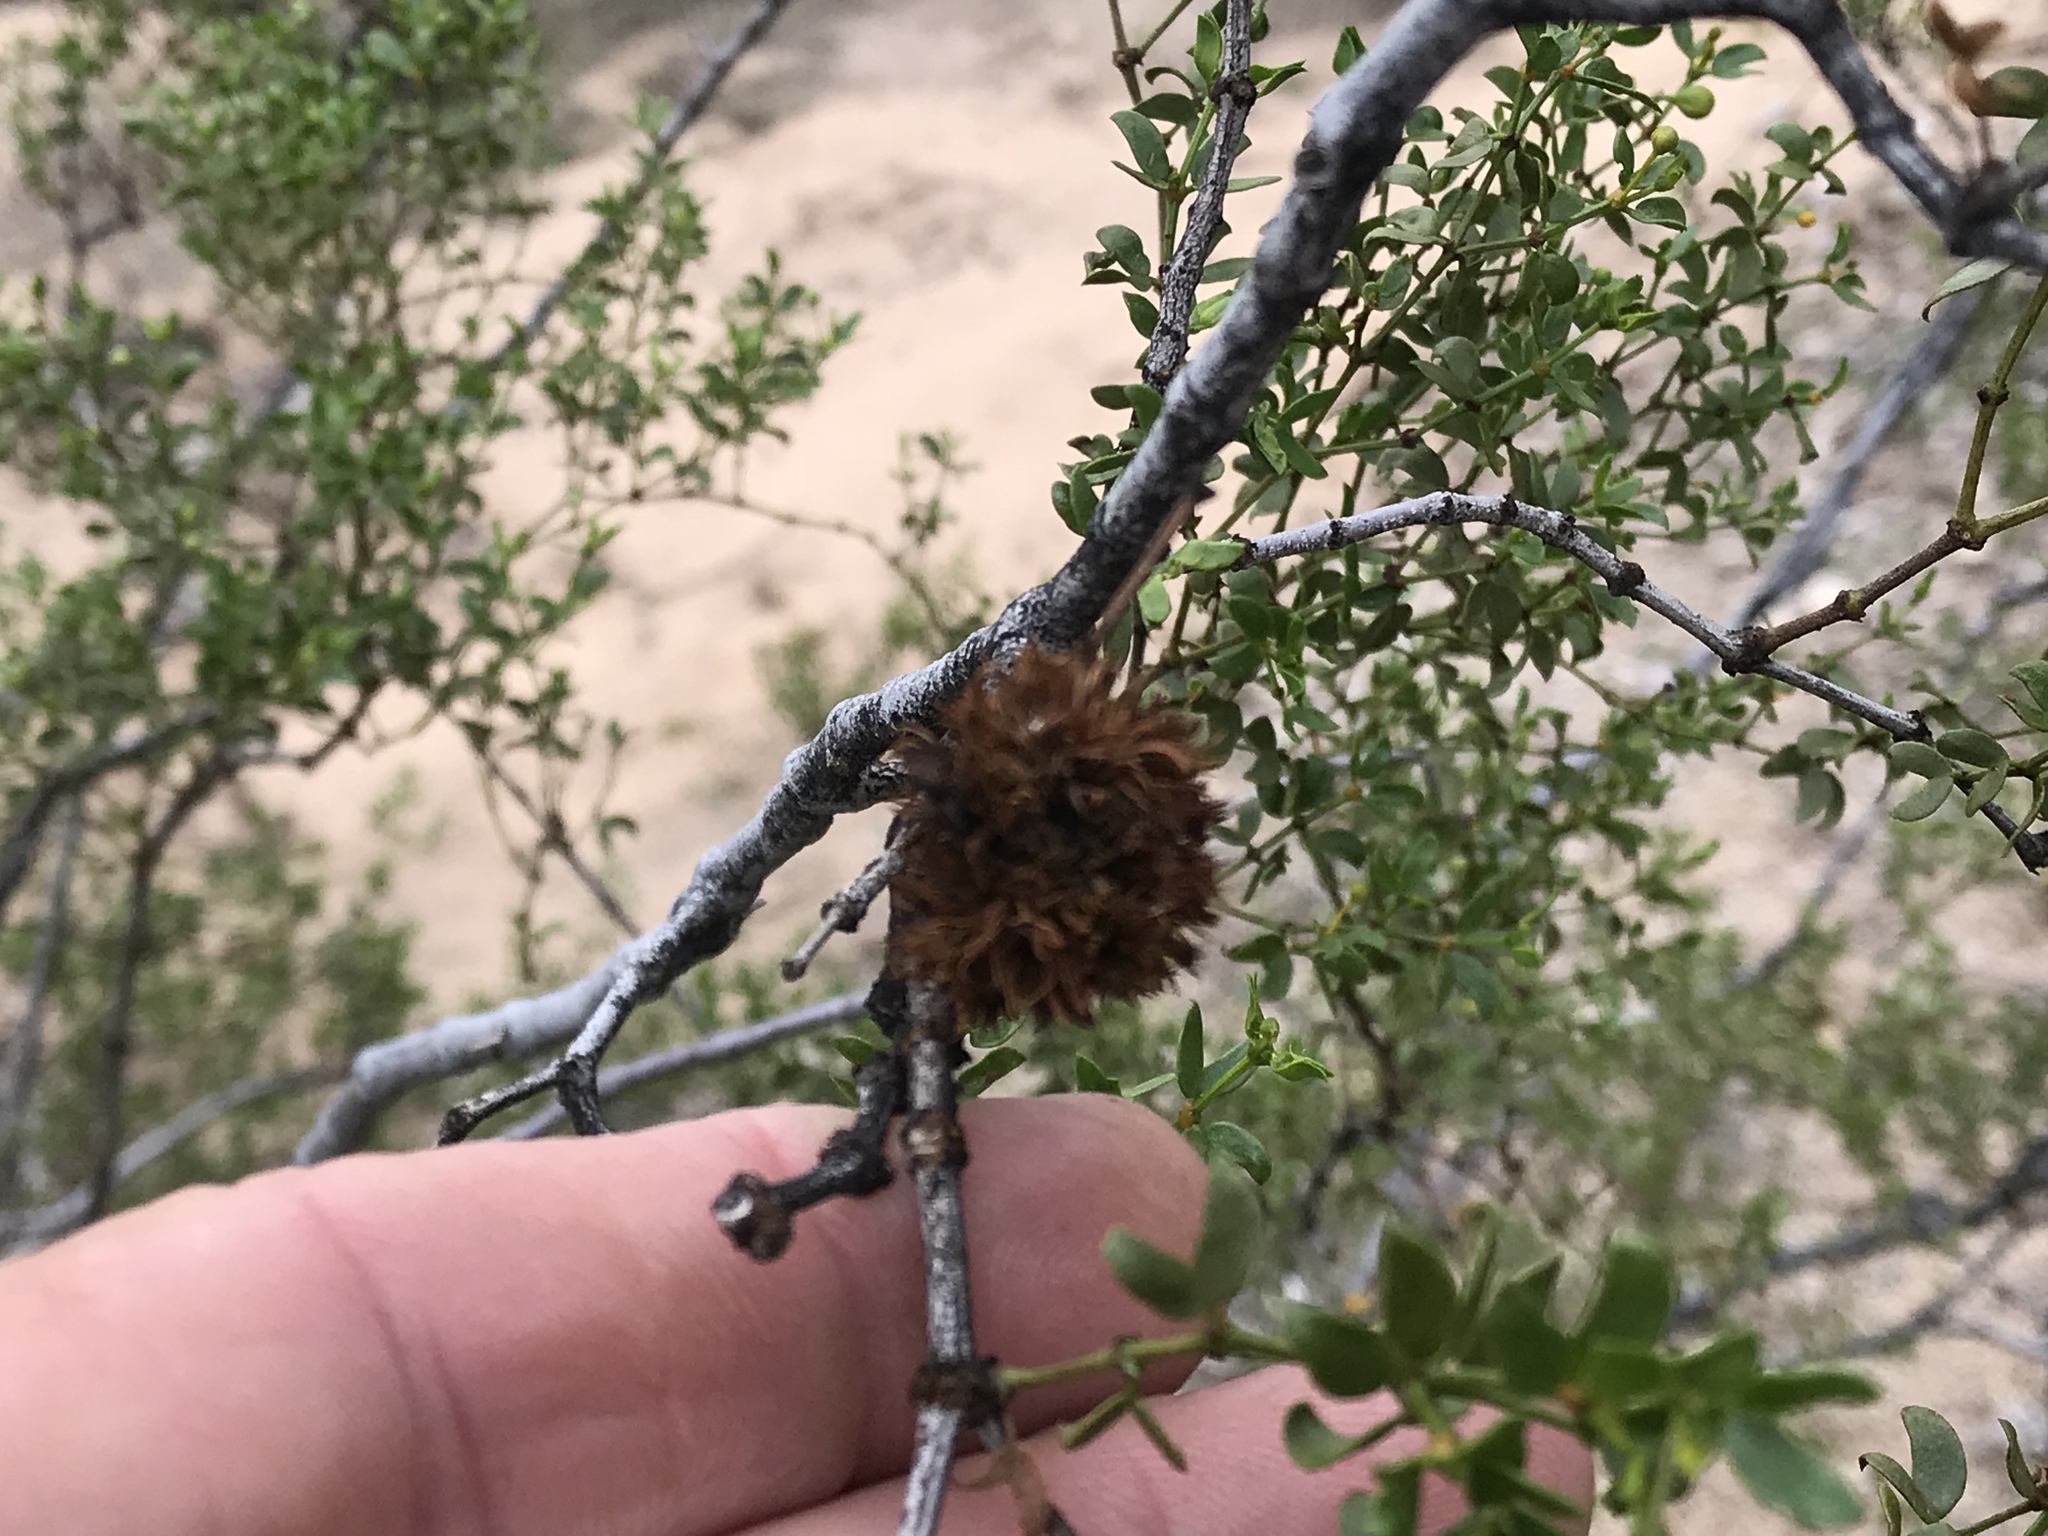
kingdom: Animalia
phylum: Arthropoda
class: Insecta
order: Diptera
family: Cecidomyiidae
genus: Asphondylia
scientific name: Asphondylia auripila
